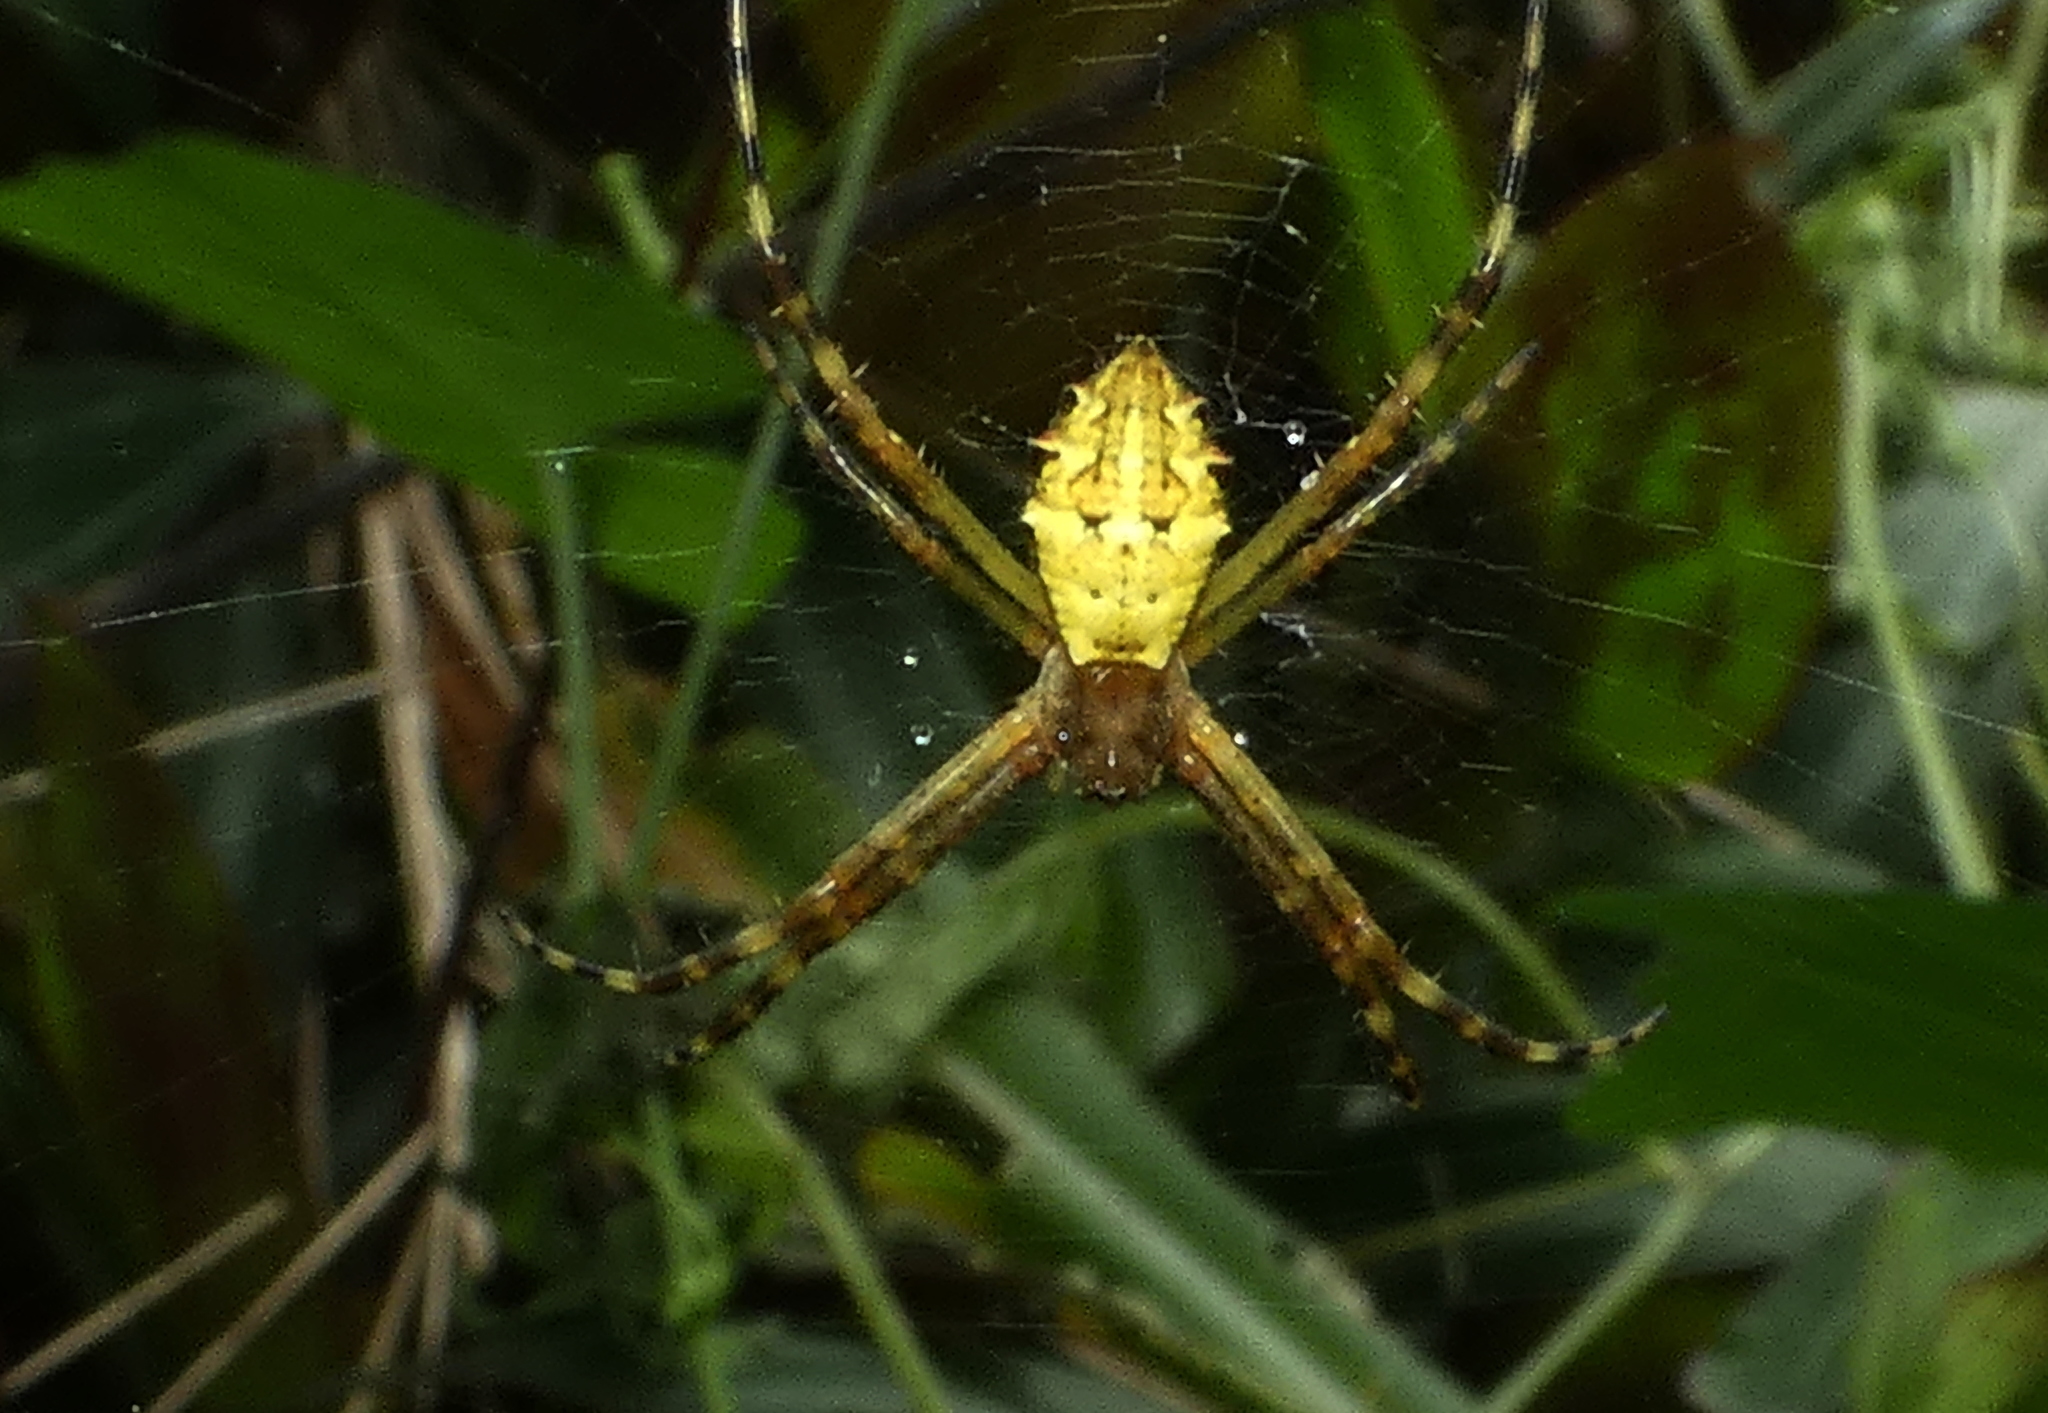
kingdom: Animalia
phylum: Arthropoda
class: Arachnida
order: Araneae
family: Araneidae
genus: Argiope
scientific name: Argiope argentata
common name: Orb weavers
